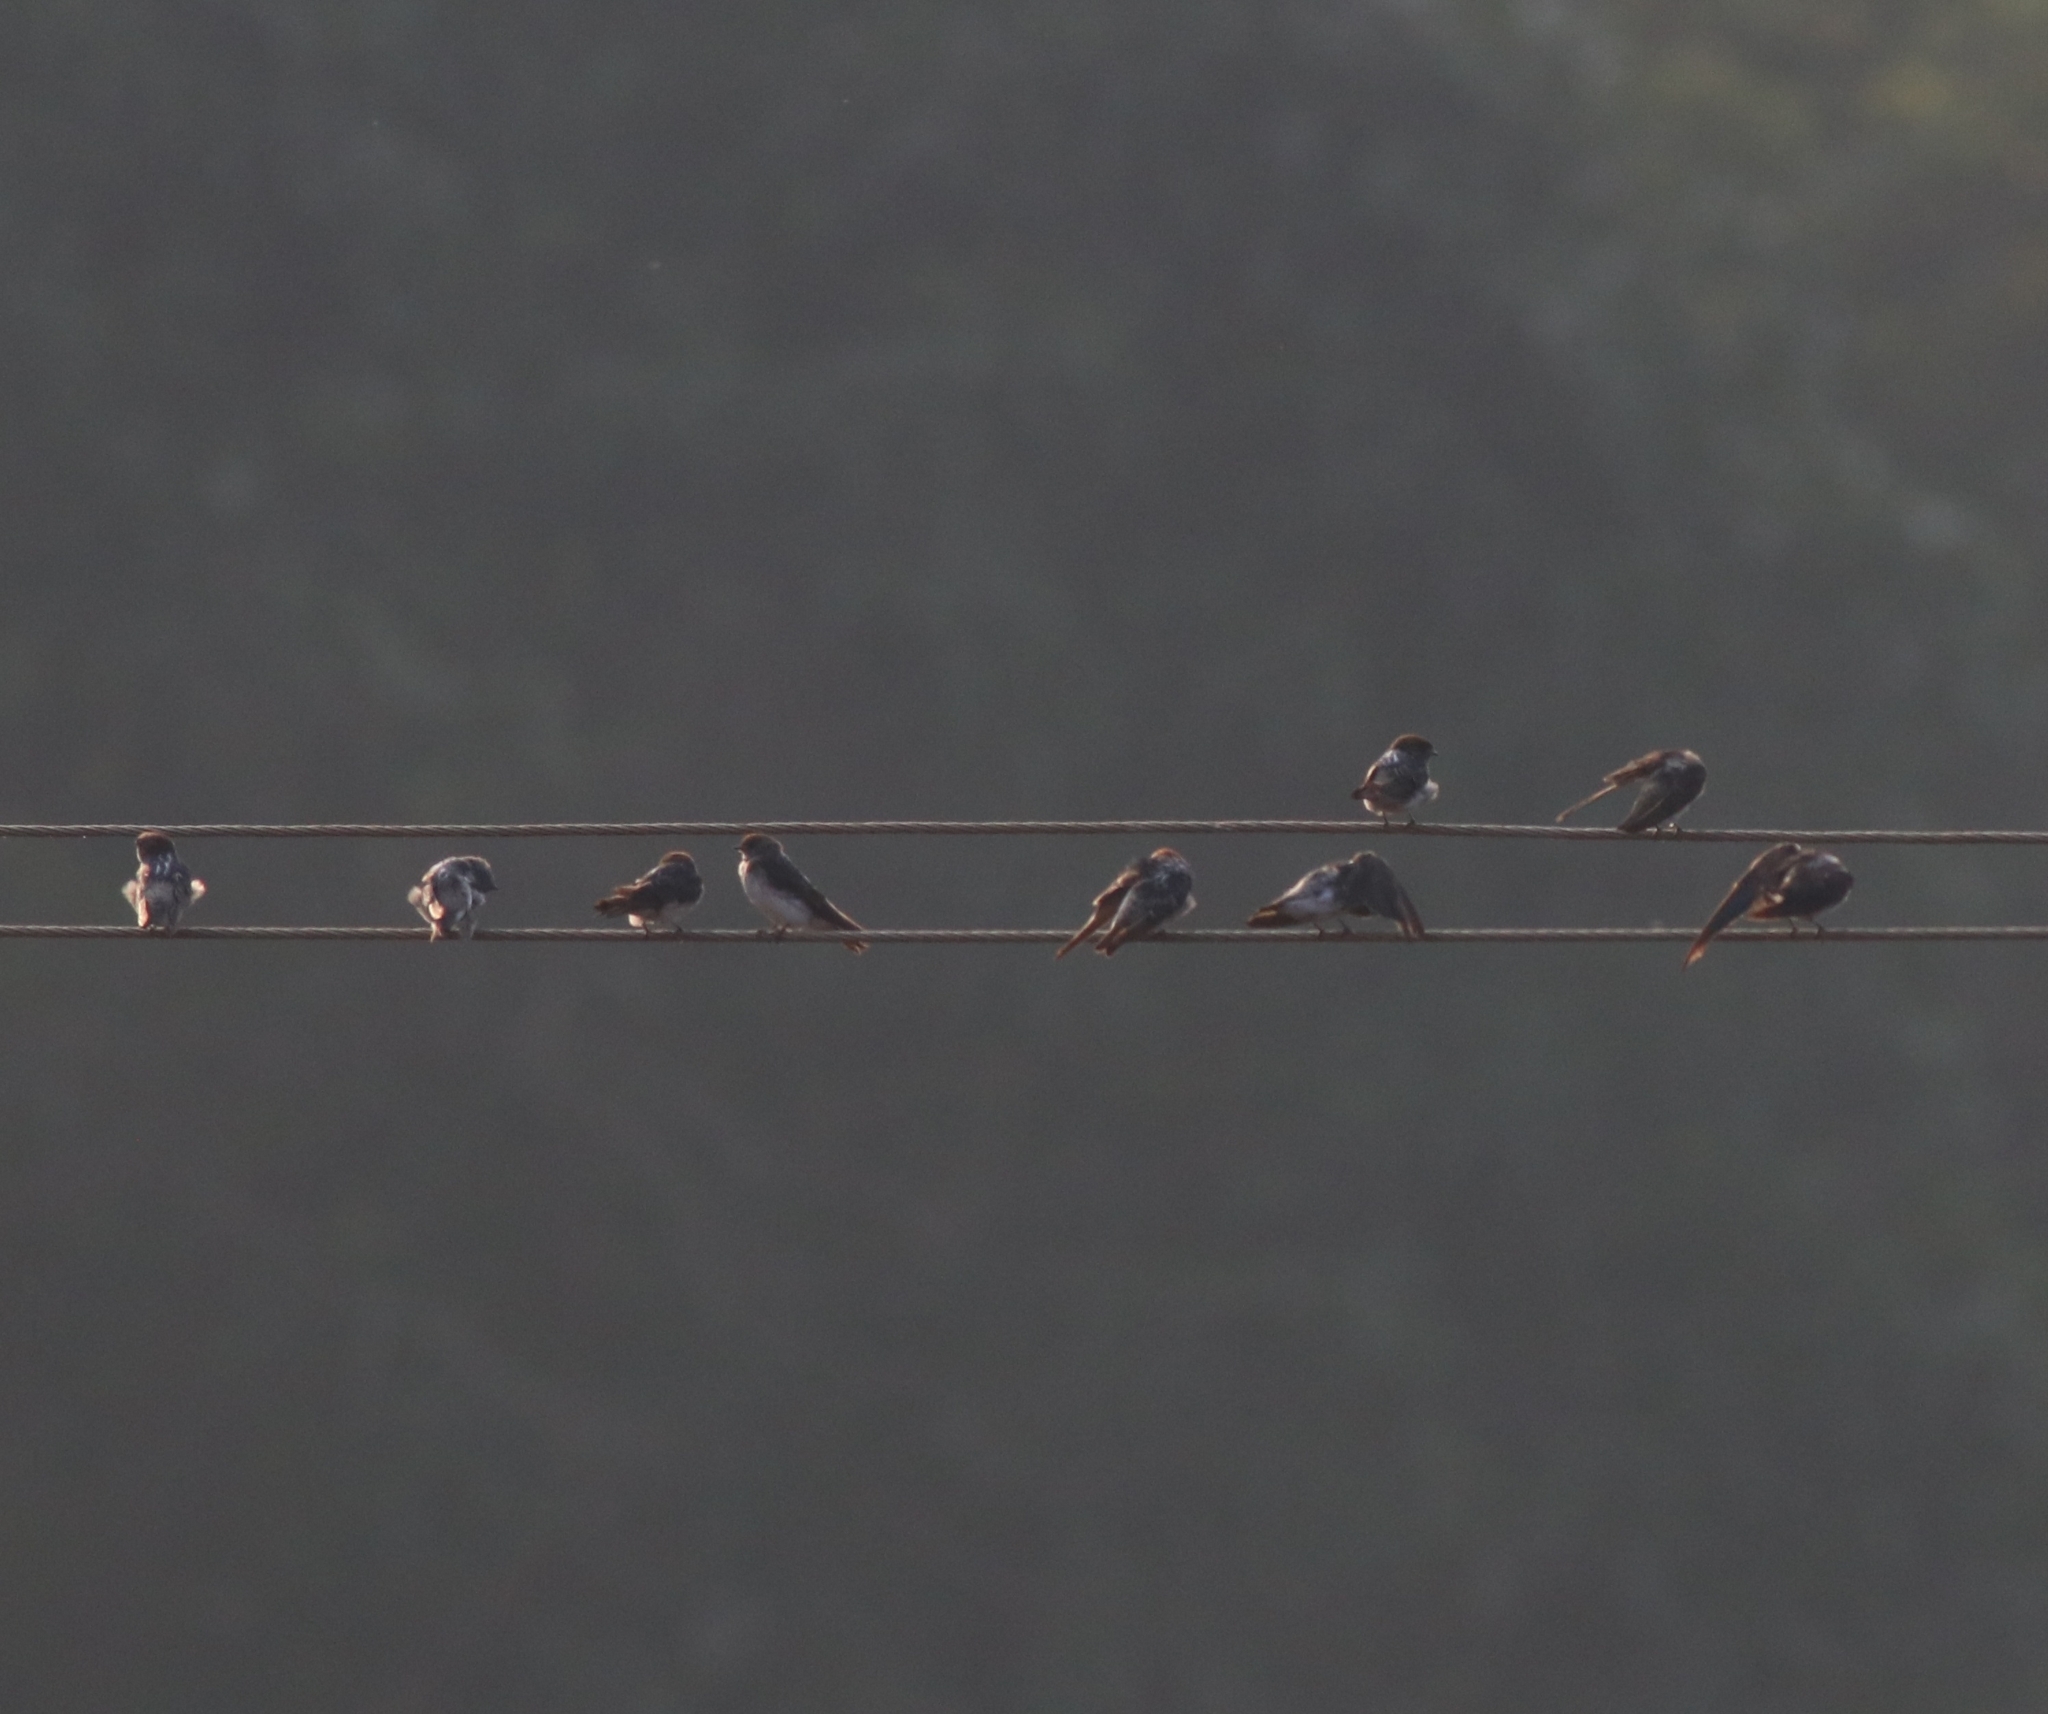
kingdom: Animalia
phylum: Chordata
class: Aves
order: Passeriformes
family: Hirundinidae
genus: Hirundo
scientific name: Hirundo smithii
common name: Wire-tailed swallow
